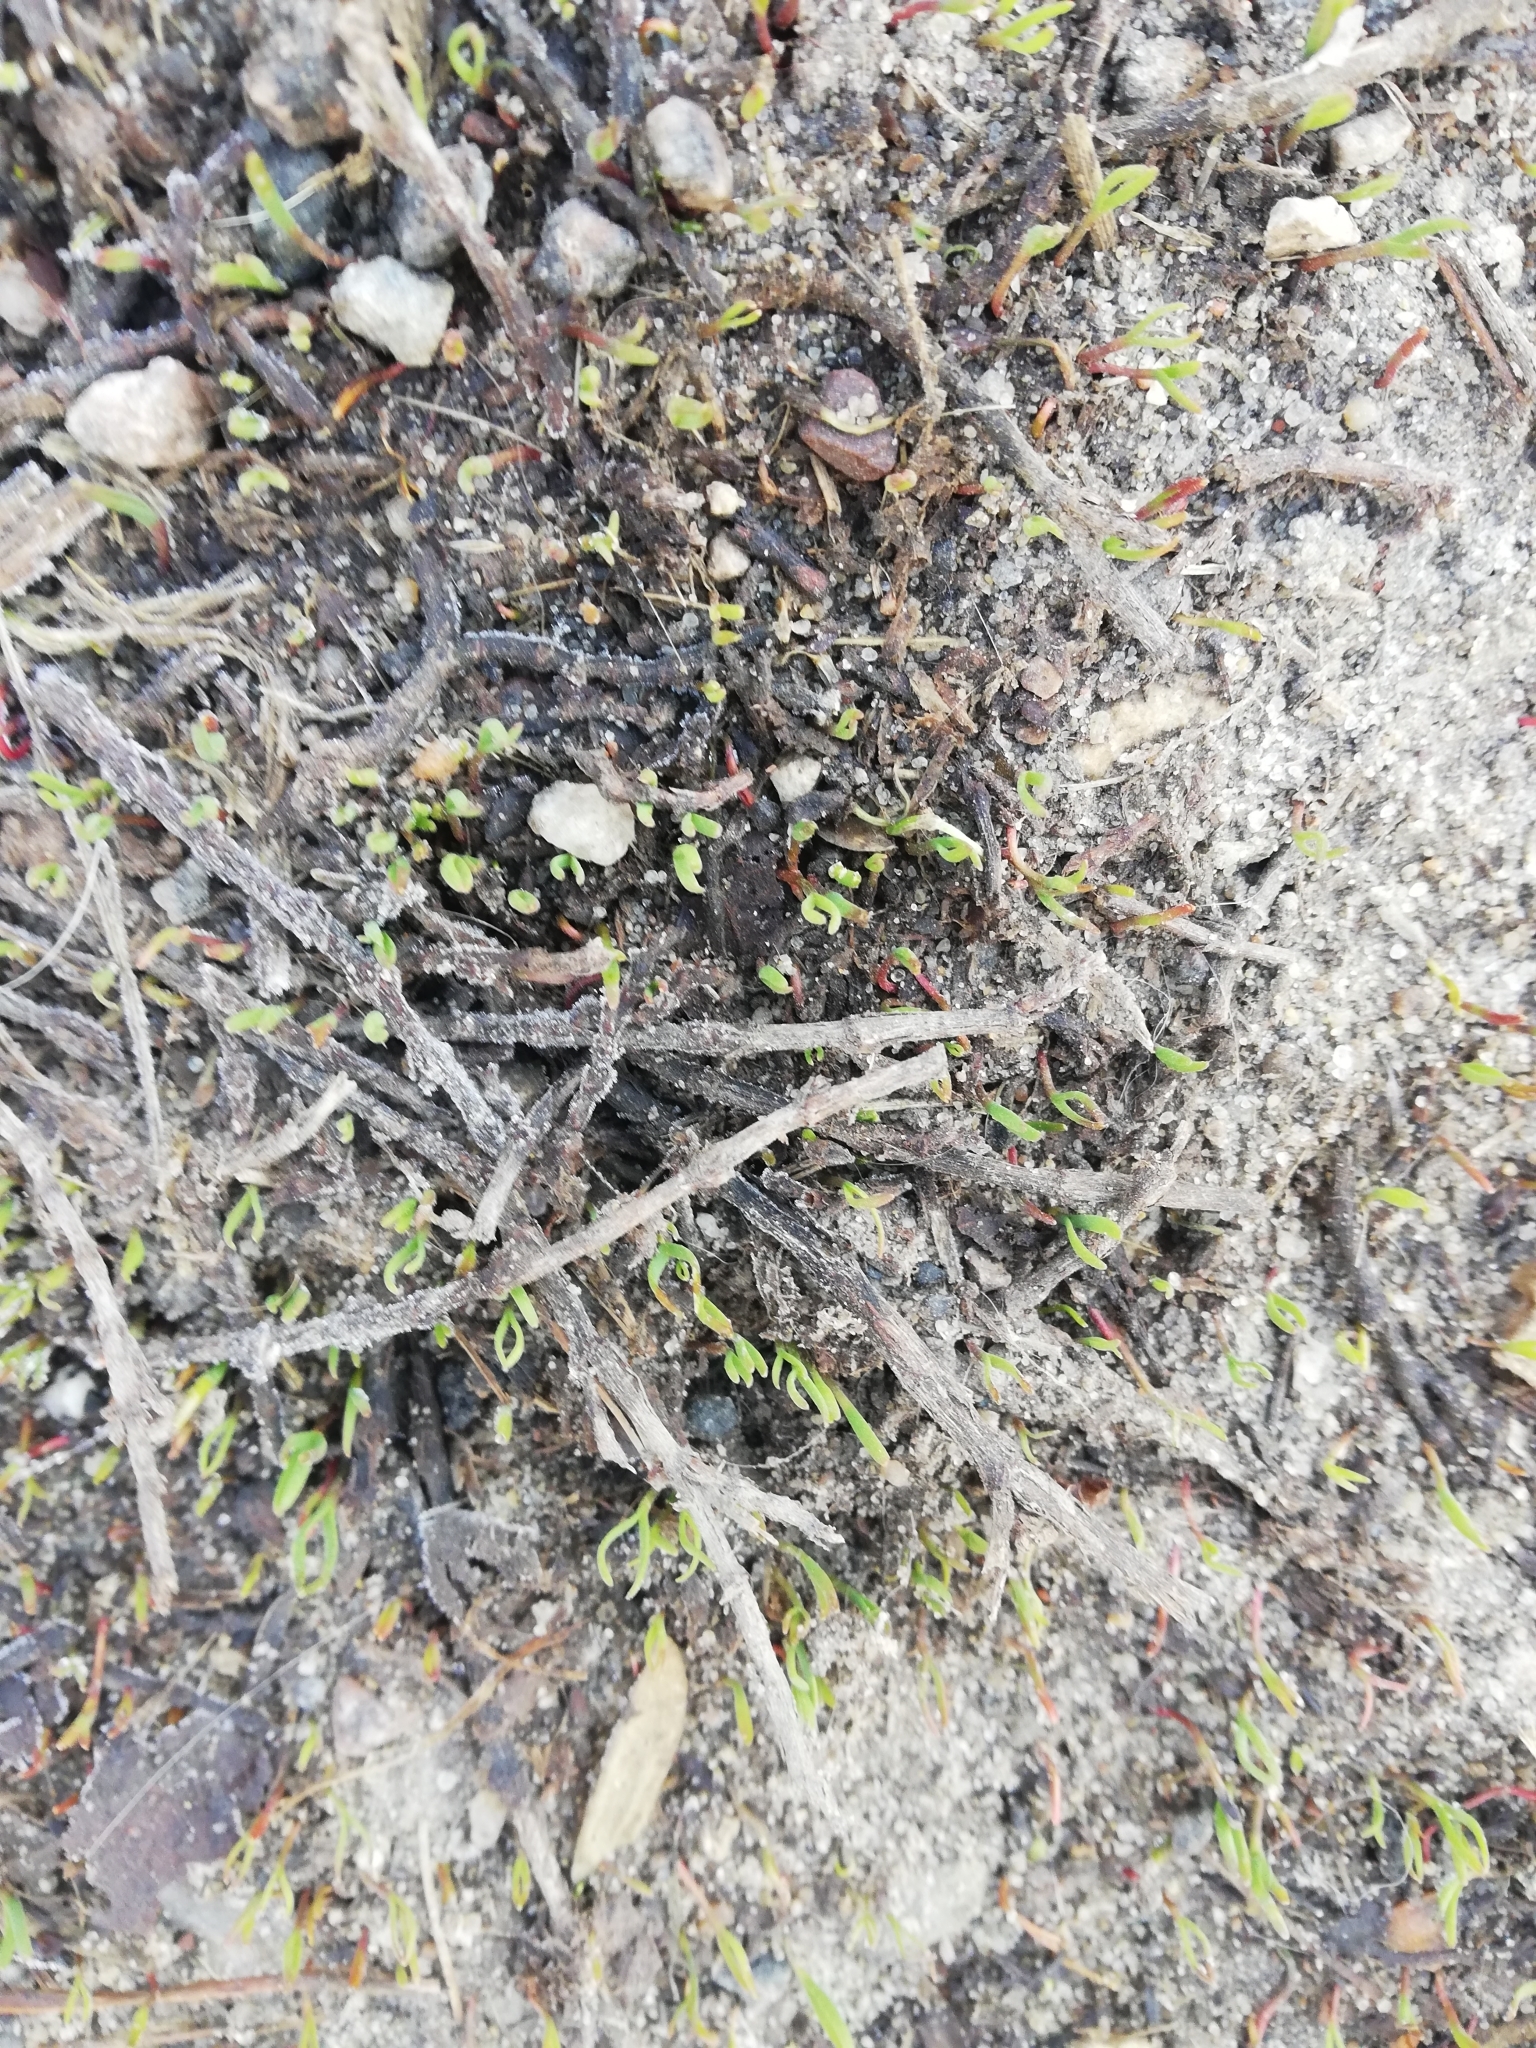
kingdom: Plantae
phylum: Tracheophyta
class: Magnoliopsida
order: Caryophyllales
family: Polygonaceae
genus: Polygonum
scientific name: Polygonum aviculare
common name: Prostrate knotweed
